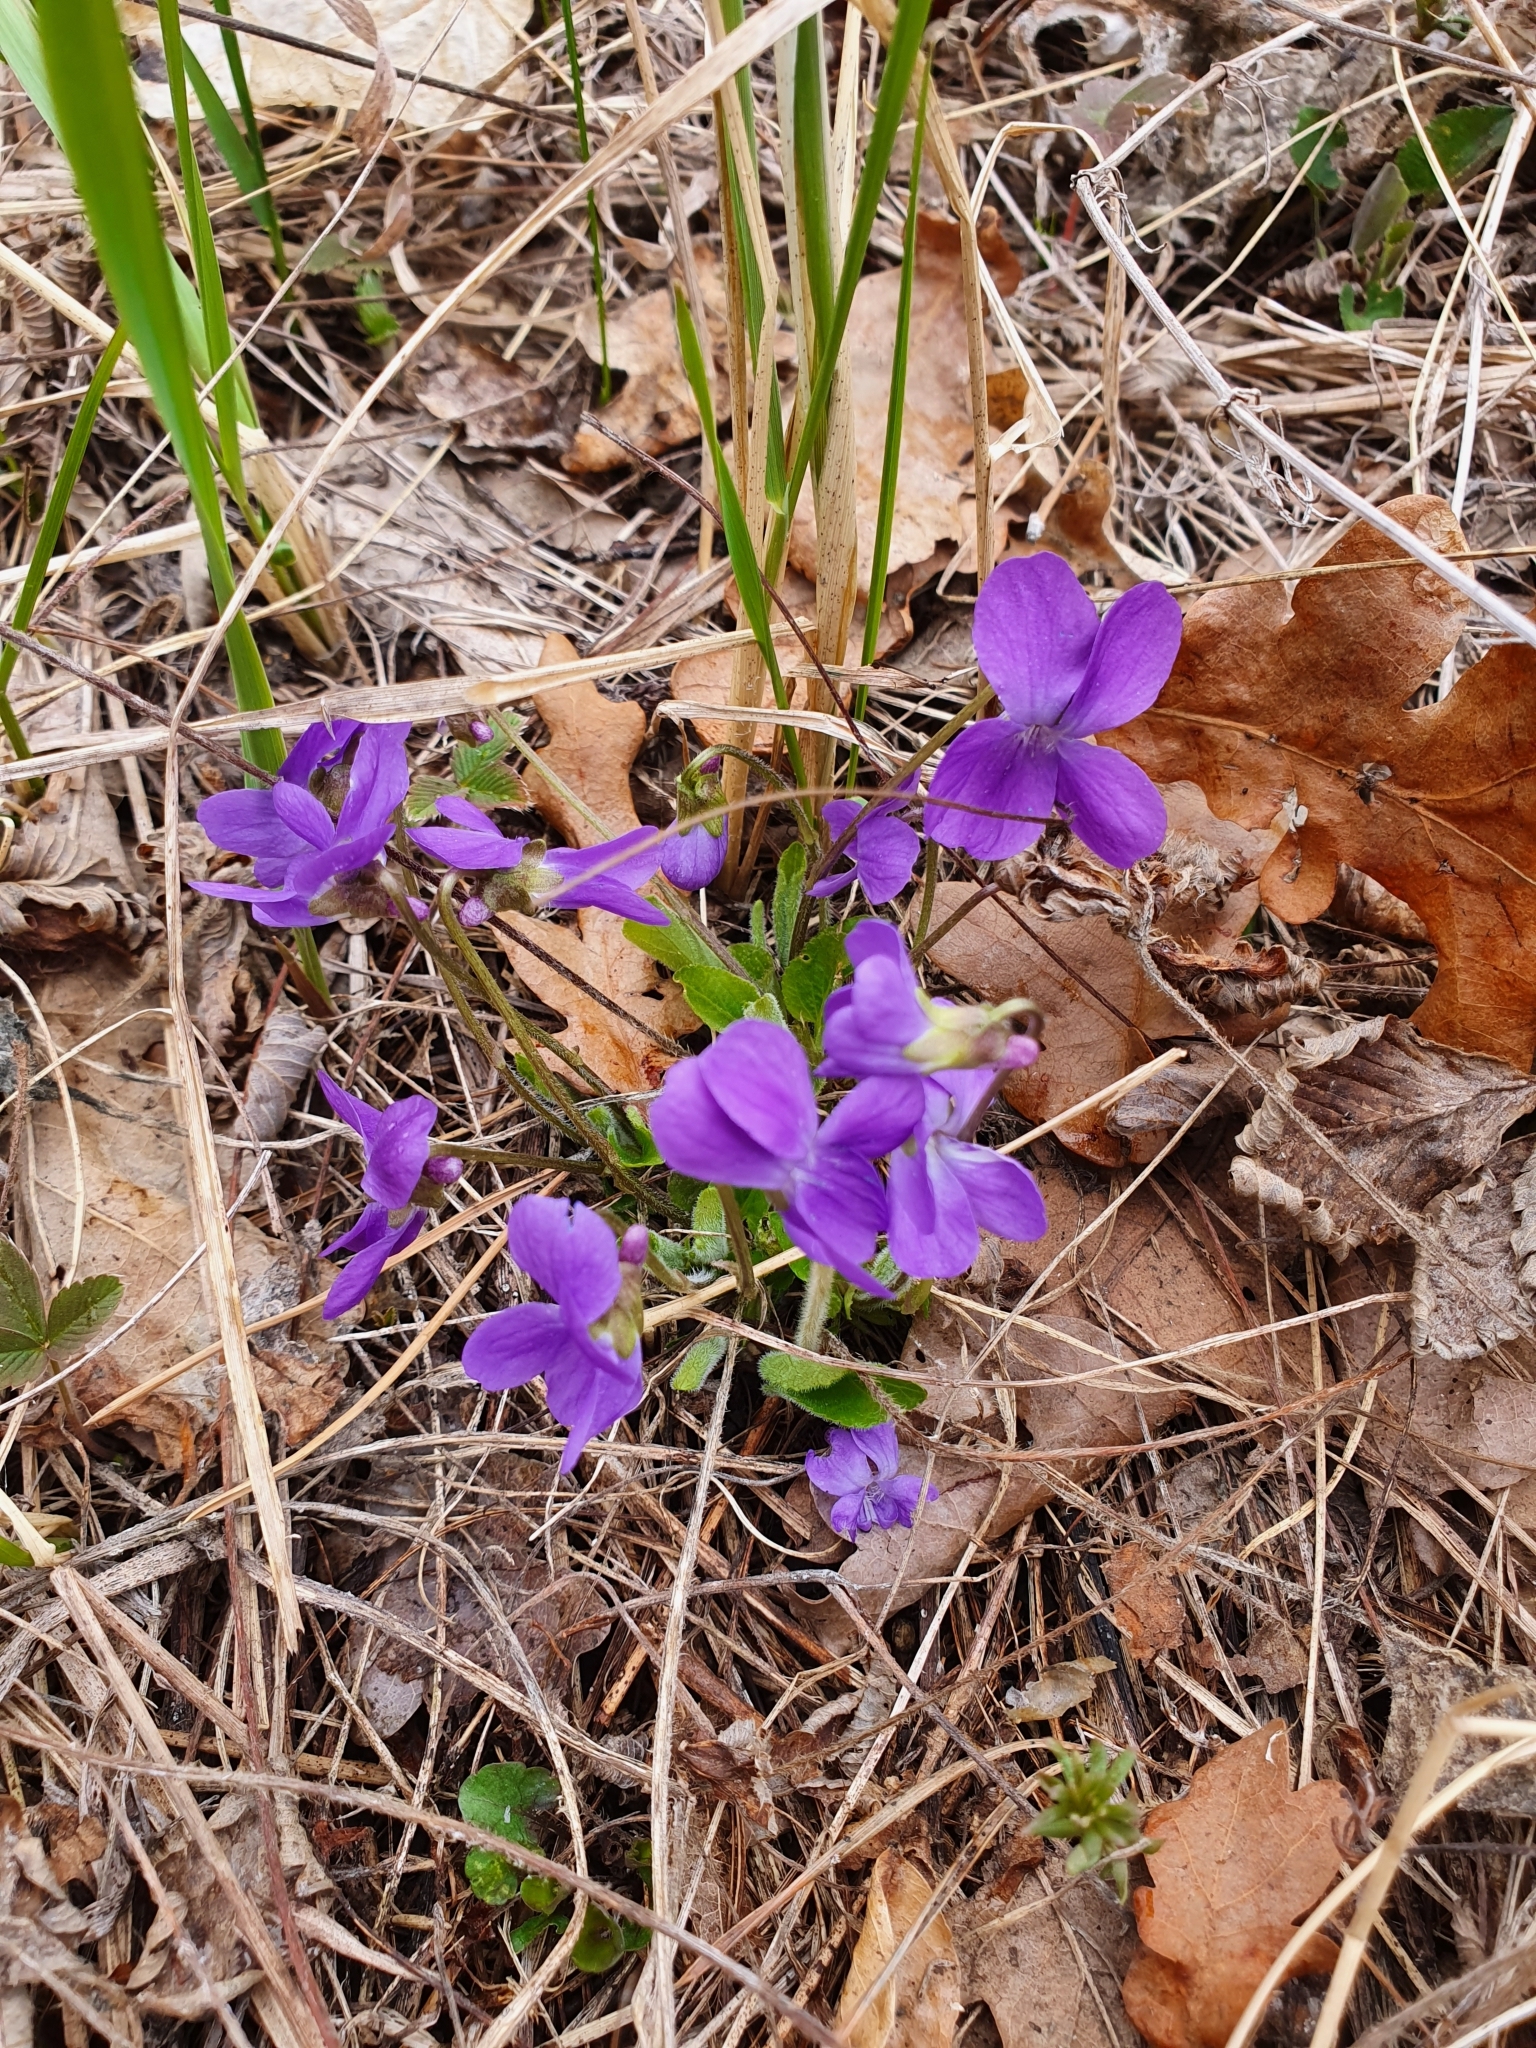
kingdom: Plantae
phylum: Tracheophyta
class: Magnoliopsida
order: Malpighiales
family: Violaceae
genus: Viola
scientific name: Viola hirta
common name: Hairy violet
